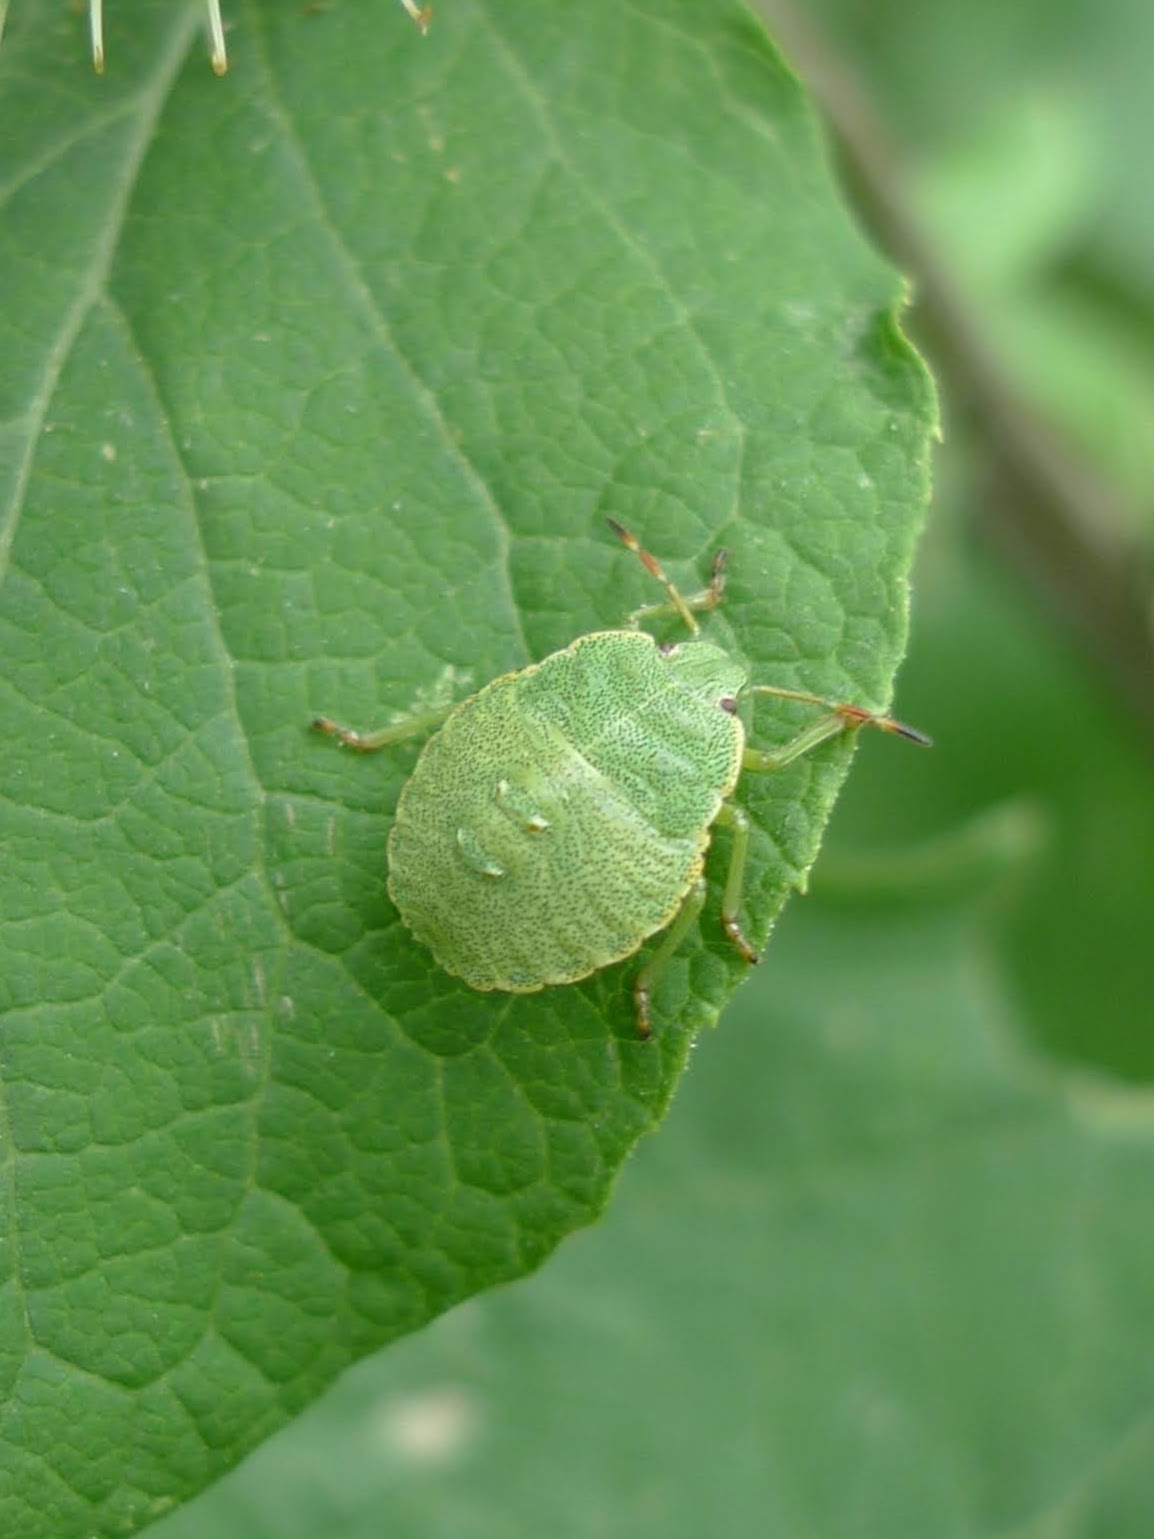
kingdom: Animalia
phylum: Arthropoda
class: Insecta
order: Hemiptera
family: Pentatomidae
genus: Palomena
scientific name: Palomena prasina
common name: Green shieldbug
